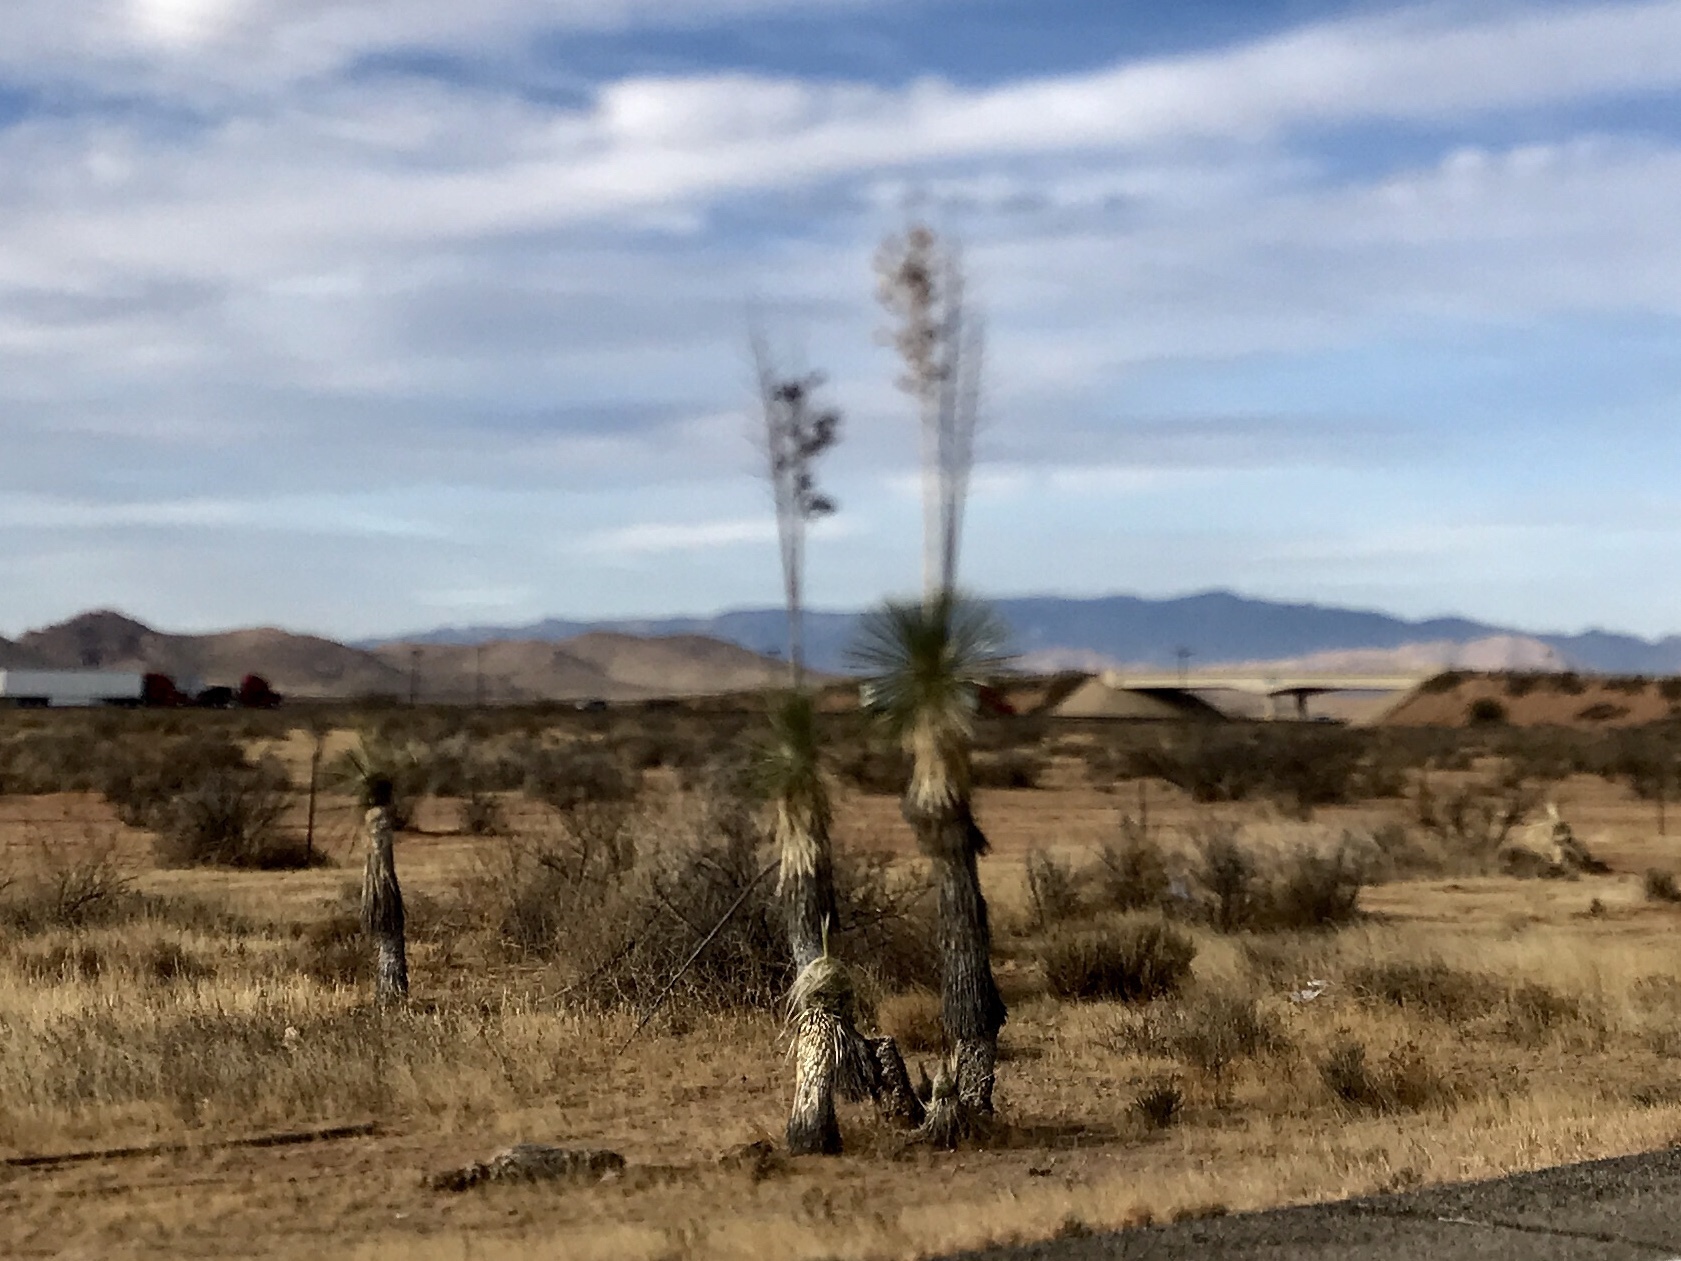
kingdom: Plantae
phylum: Tracheophyta
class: Liliopsida
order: Asparagales
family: Asparagaceae
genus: Yucca
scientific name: Yucca elata
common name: Palmella
